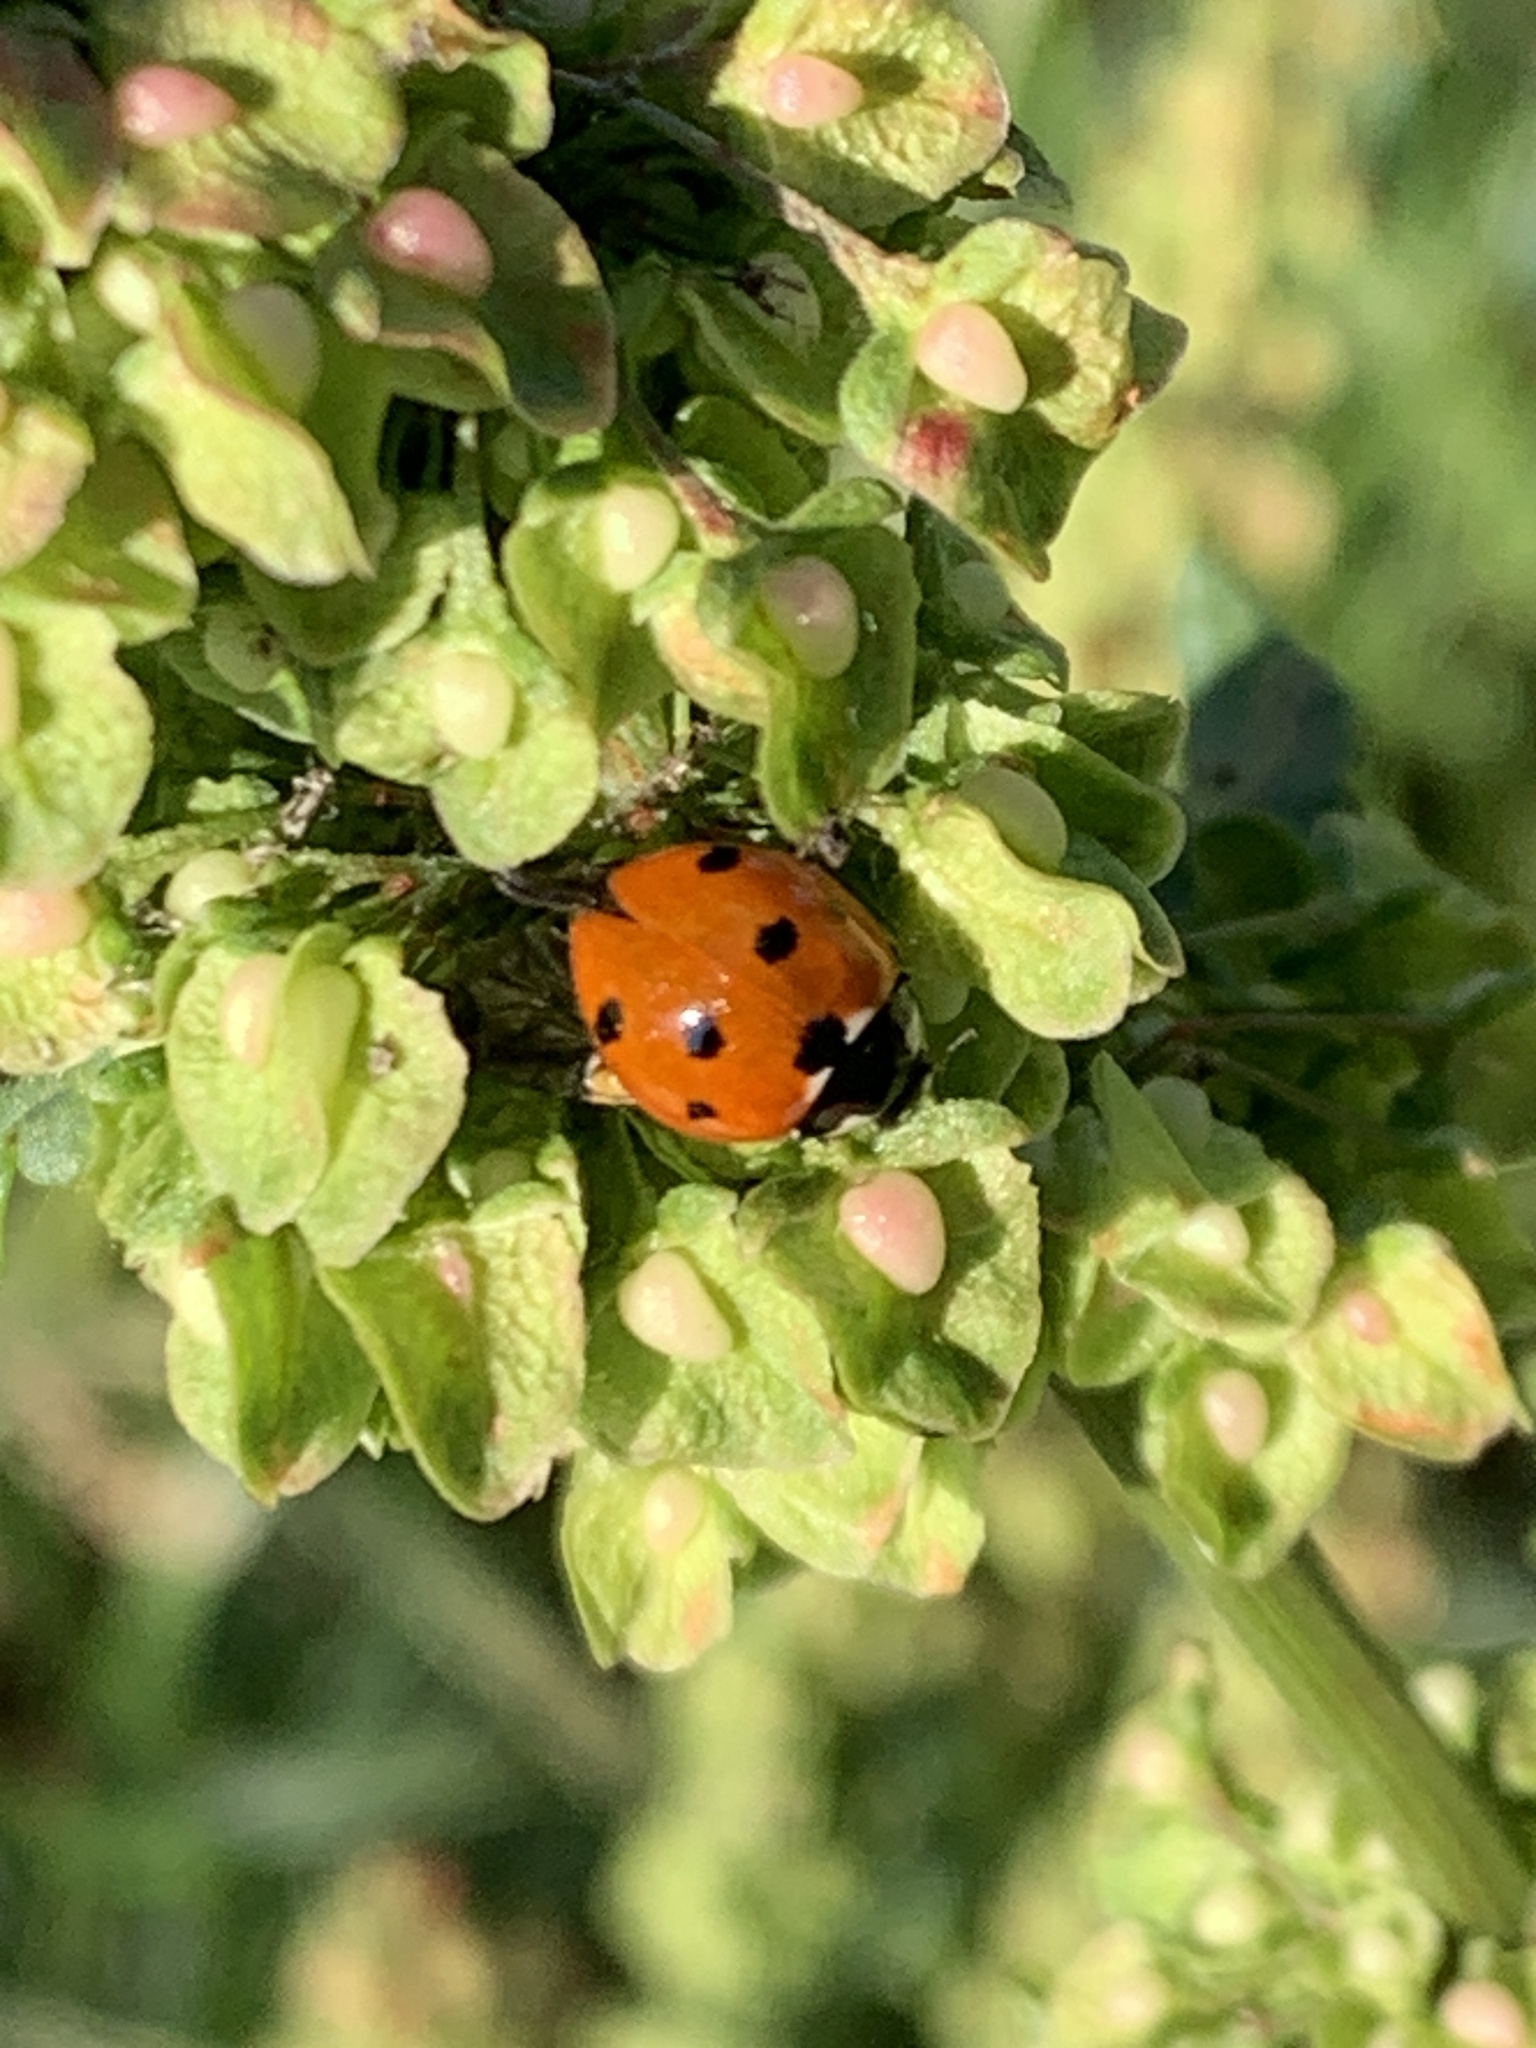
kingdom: Animalia
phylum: Arthropoda
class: Insecta
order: Coleoptera
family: Coccinellidae
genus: Coccinella
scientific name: Coccinella septempunctata
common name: Sevenspotted lady beetle
